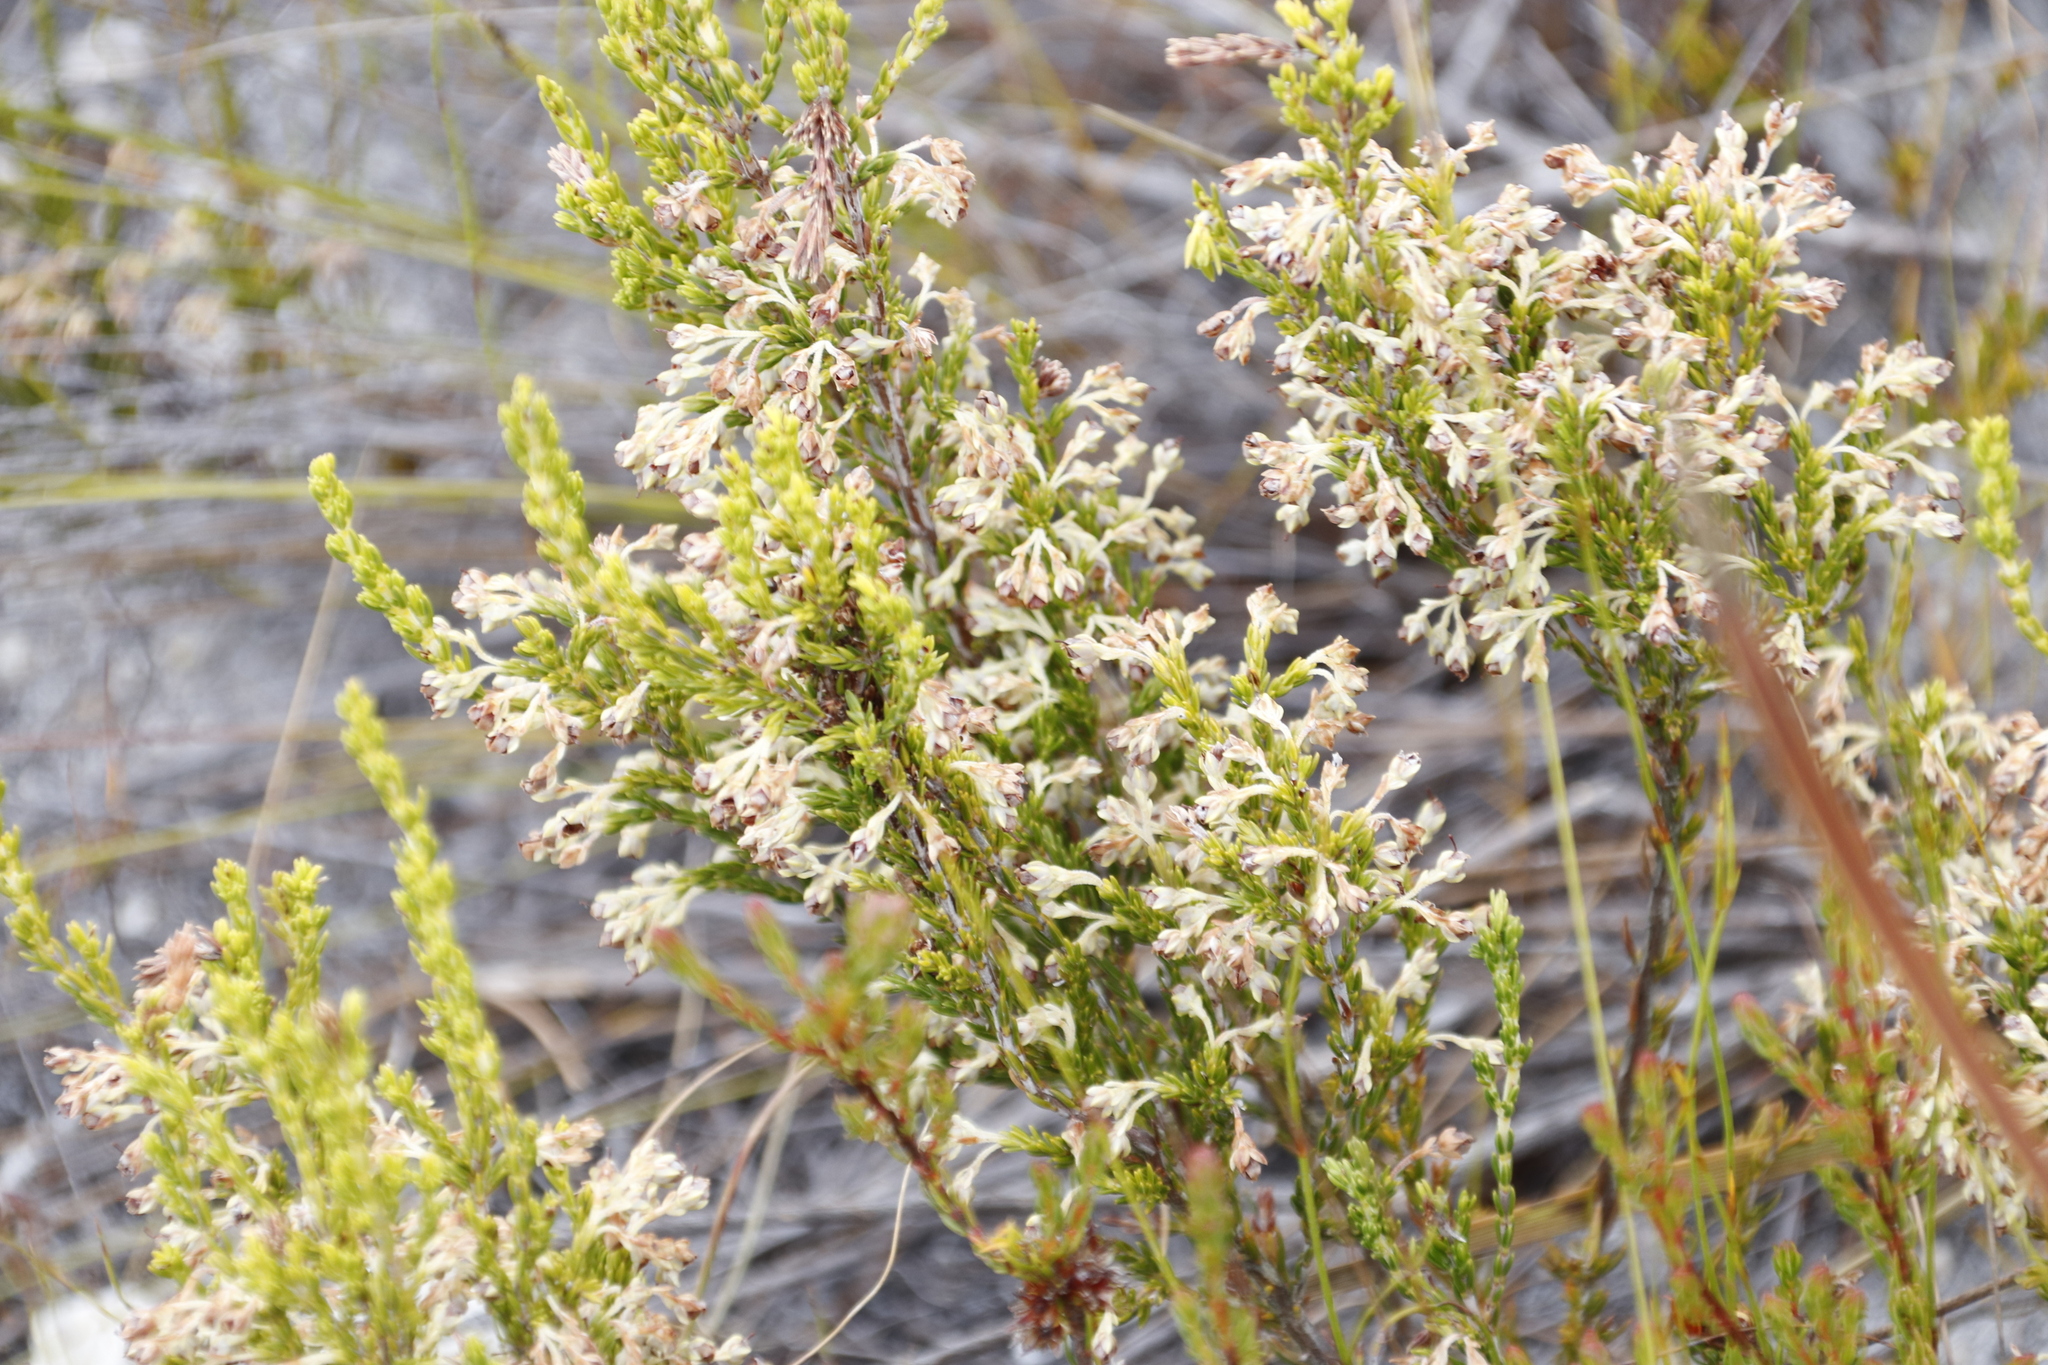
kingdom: Plantae
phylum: Tracheophyta
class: Magnoliopsida
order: Ericales
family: Ericaceae
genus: Erica
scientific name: Erica calycina
